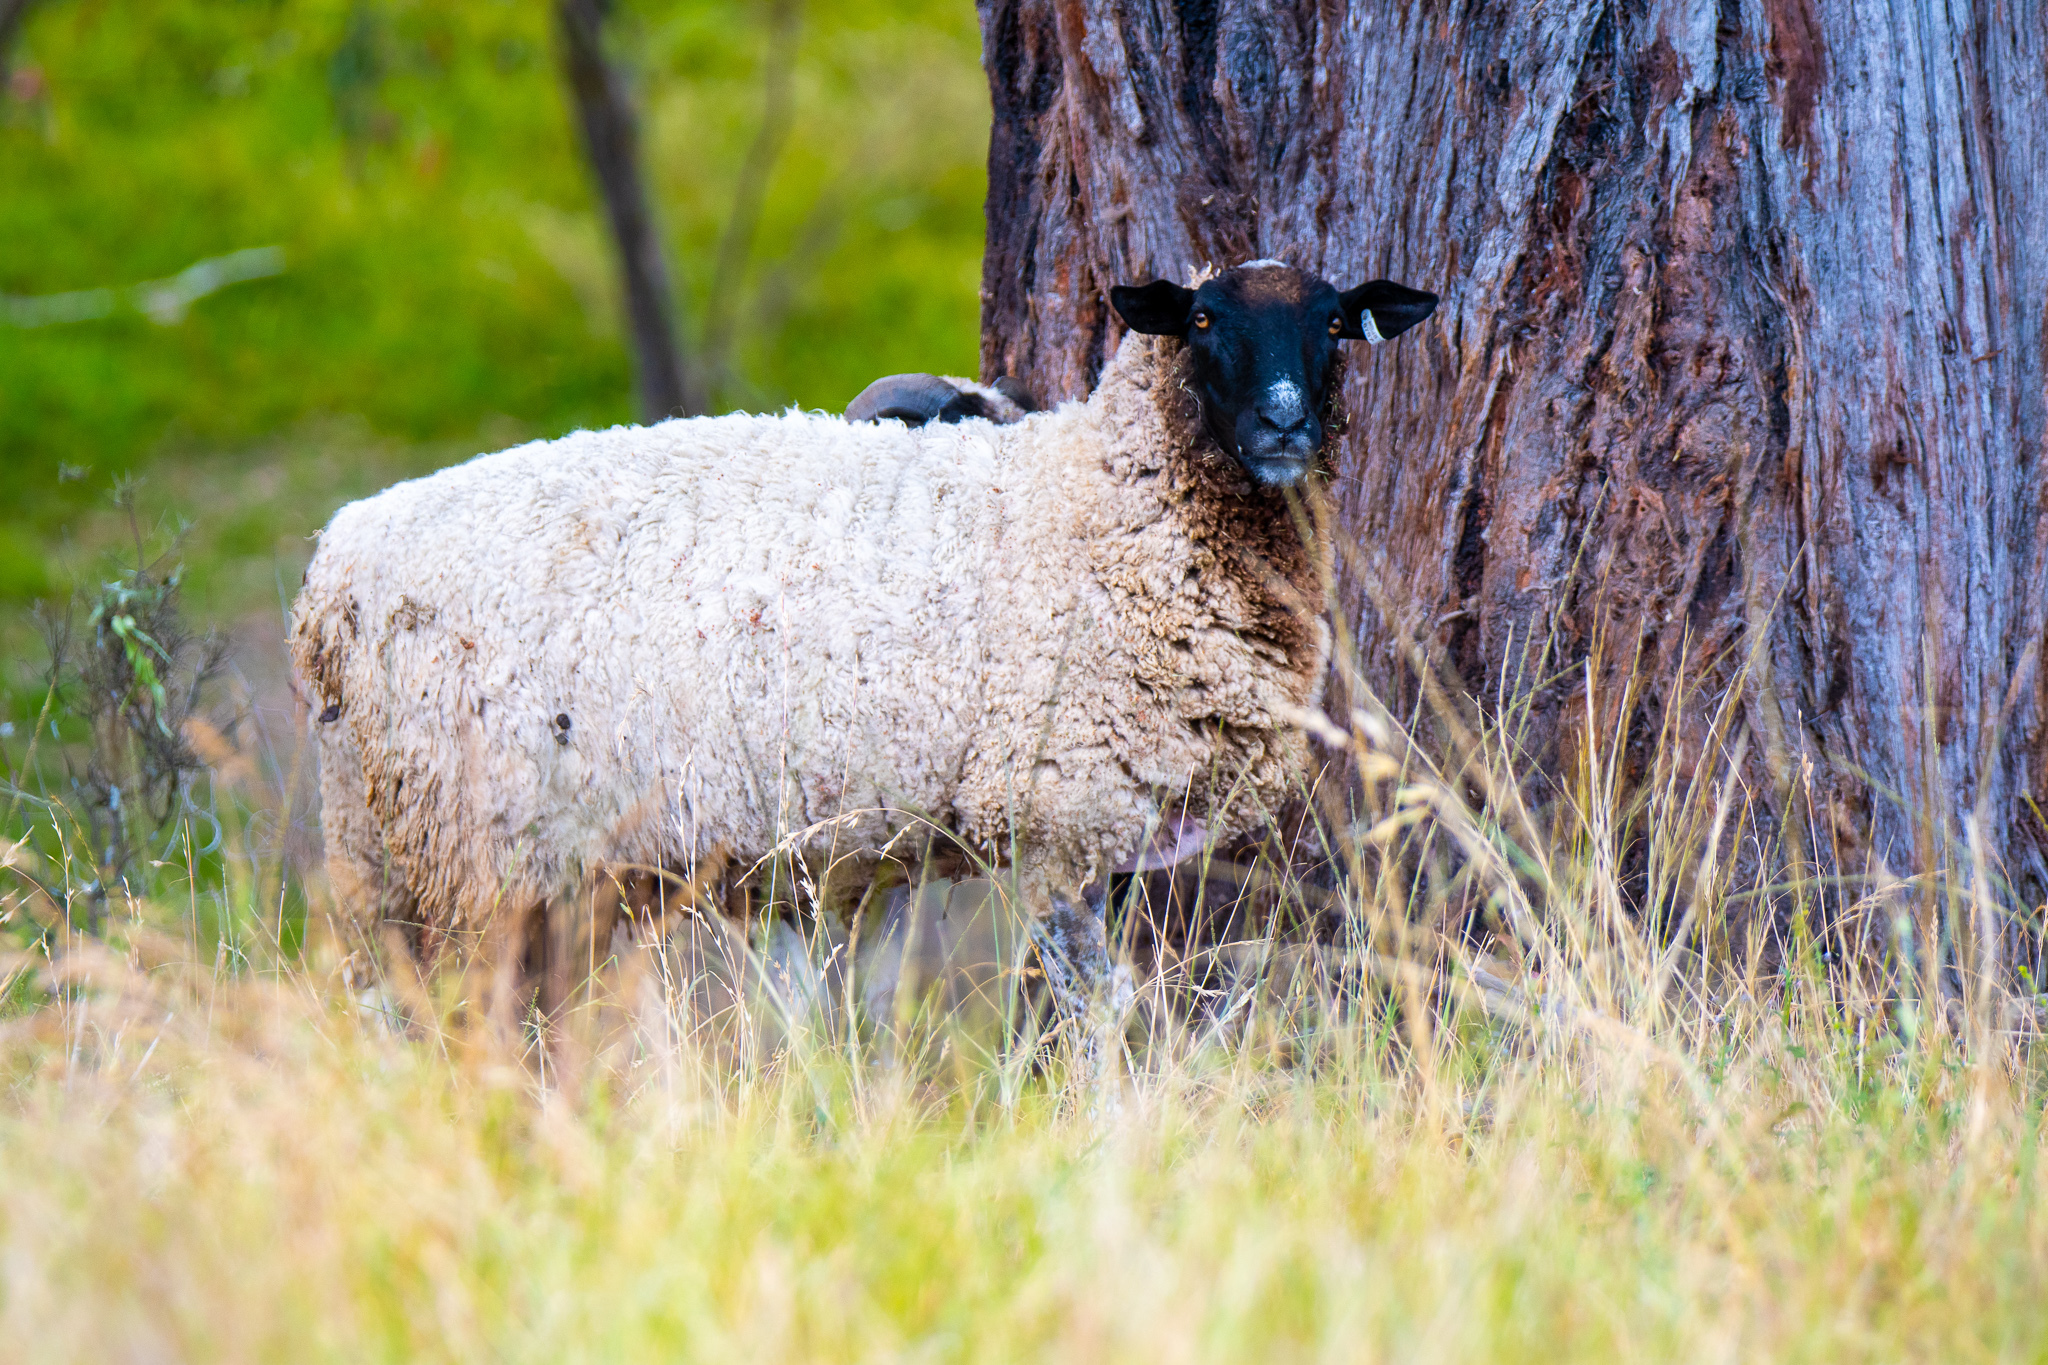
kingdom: Animalia
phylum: Chordata
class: Mammalia
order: Artiodactyla
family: Bovidae
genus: Ovis
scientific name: Ovis aries
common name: Domestic sheep
